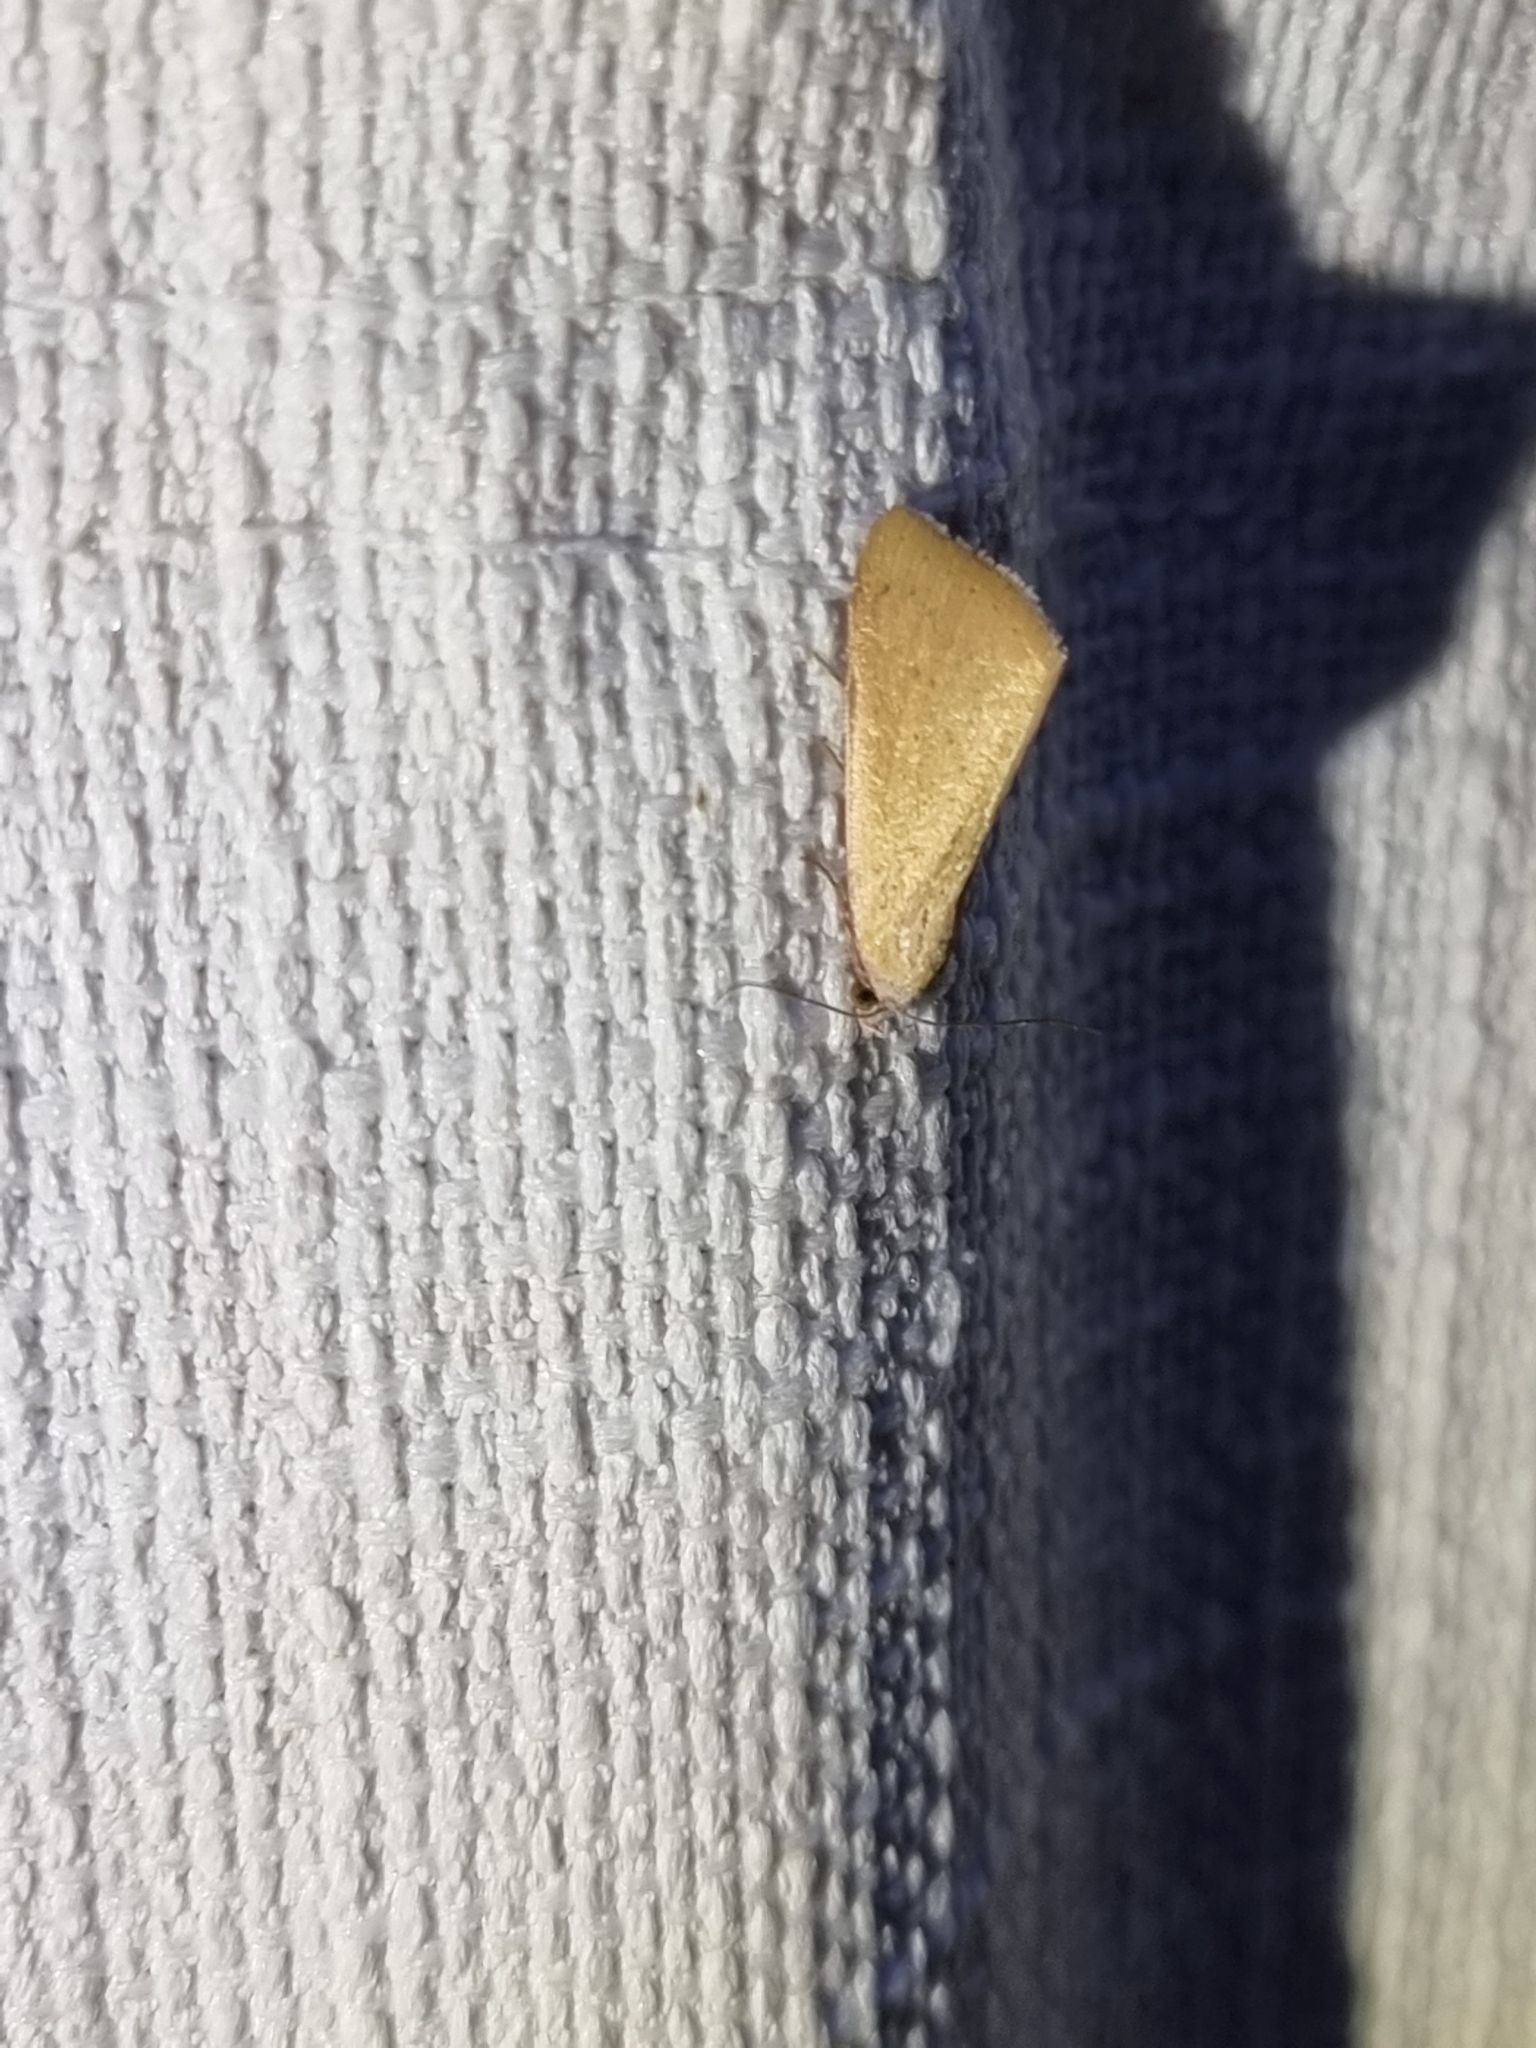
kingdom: Animalia
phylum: Arthropoda
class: Insecta
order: Lepidoptera
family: Erebidae
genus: Phytometra
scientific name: Phytometra laevis
